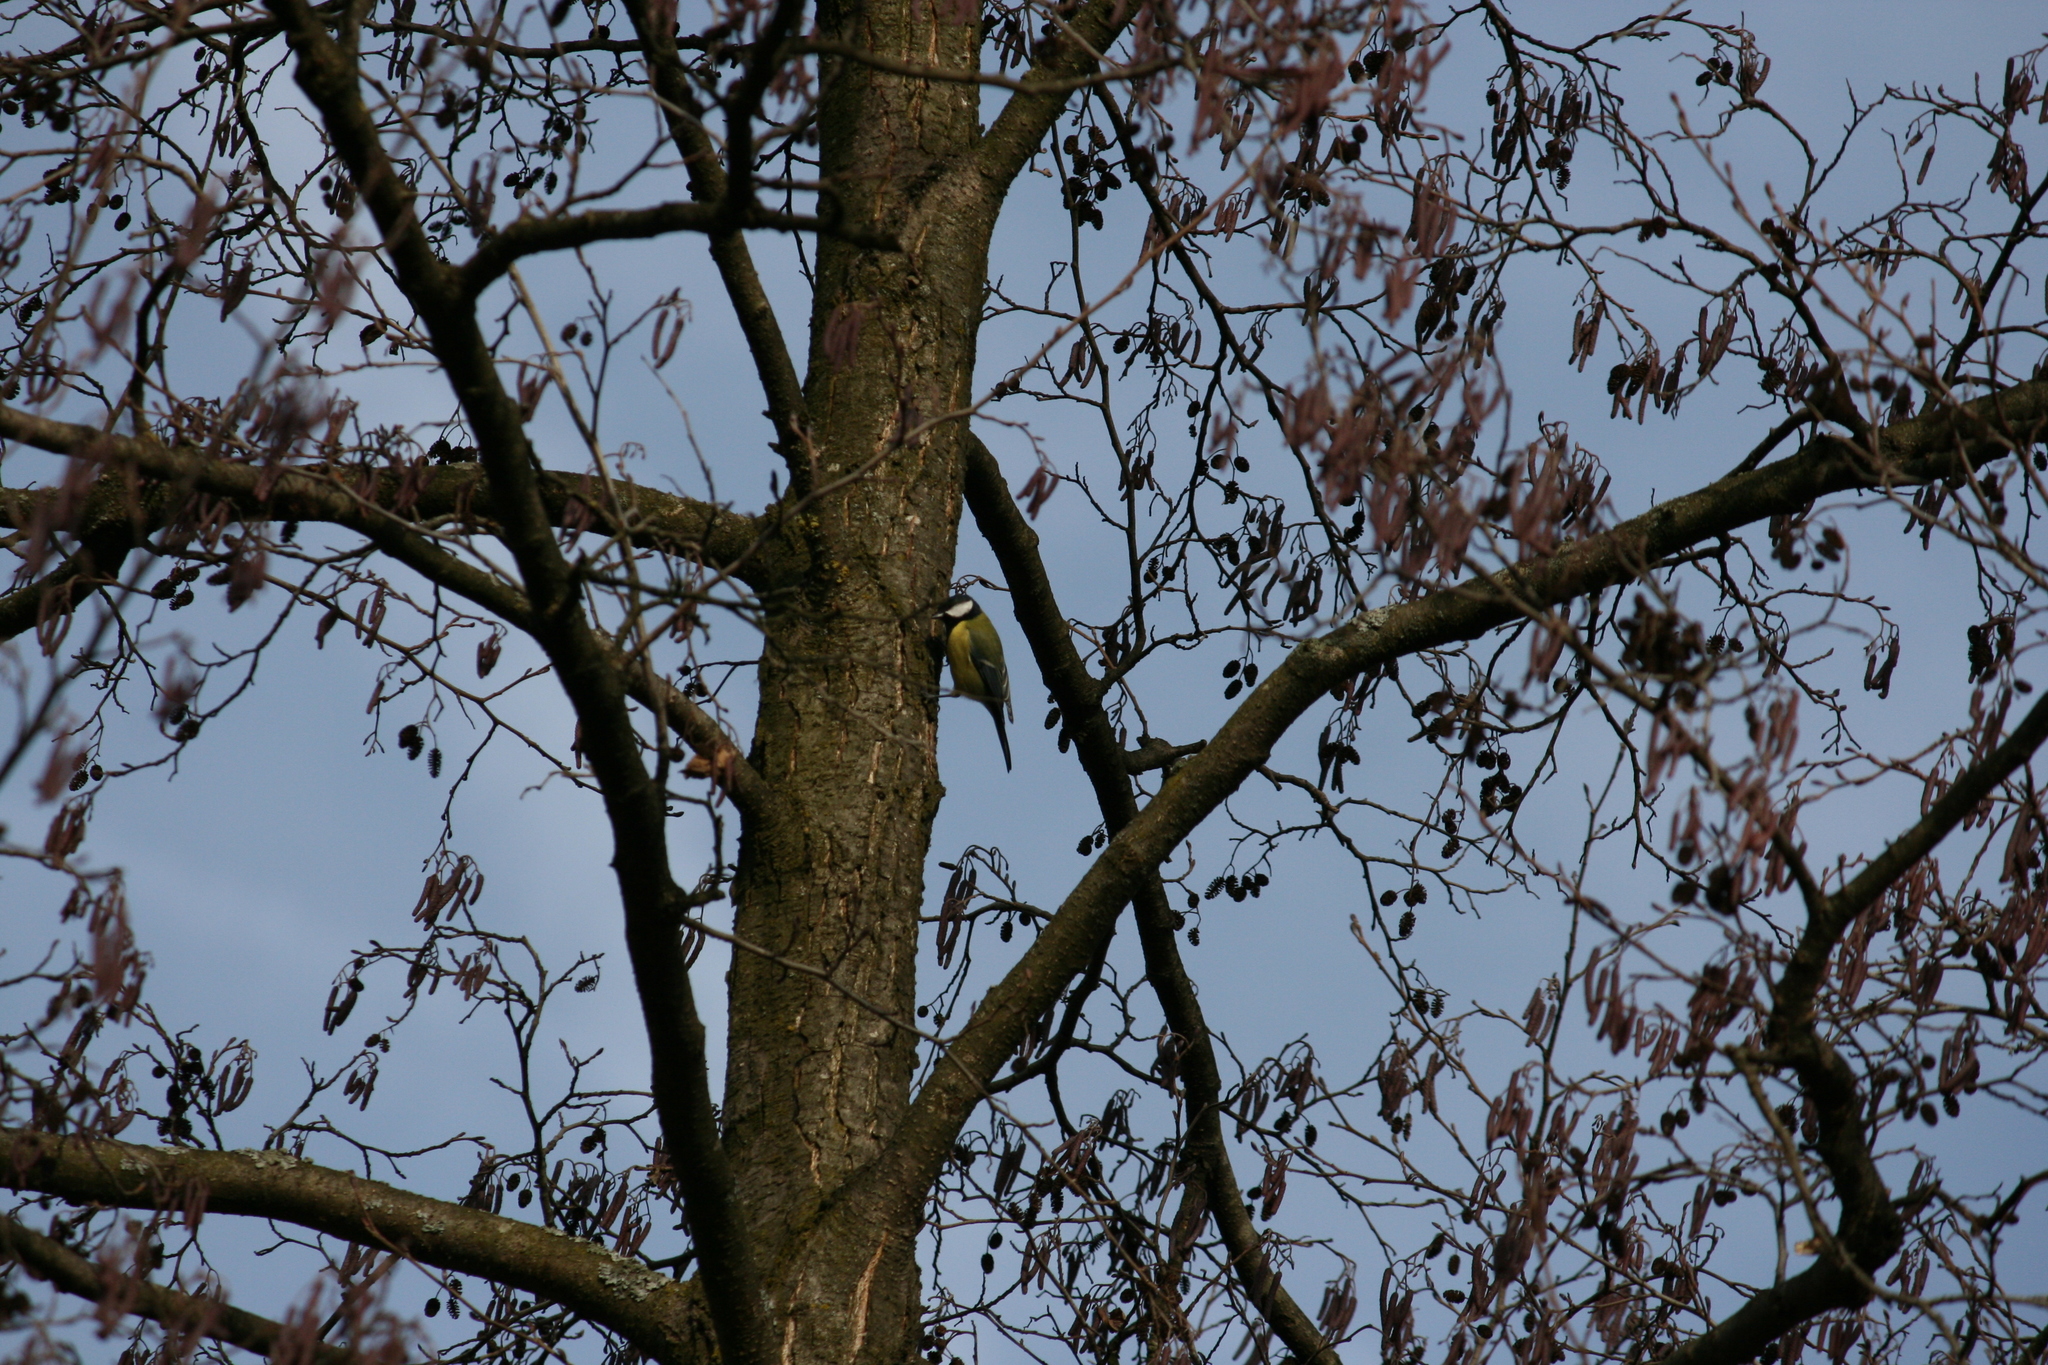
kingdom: Animalia
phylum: Chordata
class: Aves
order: Passeriformes
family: Paridae
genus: Parus
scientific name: Parus major
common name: Great tit
